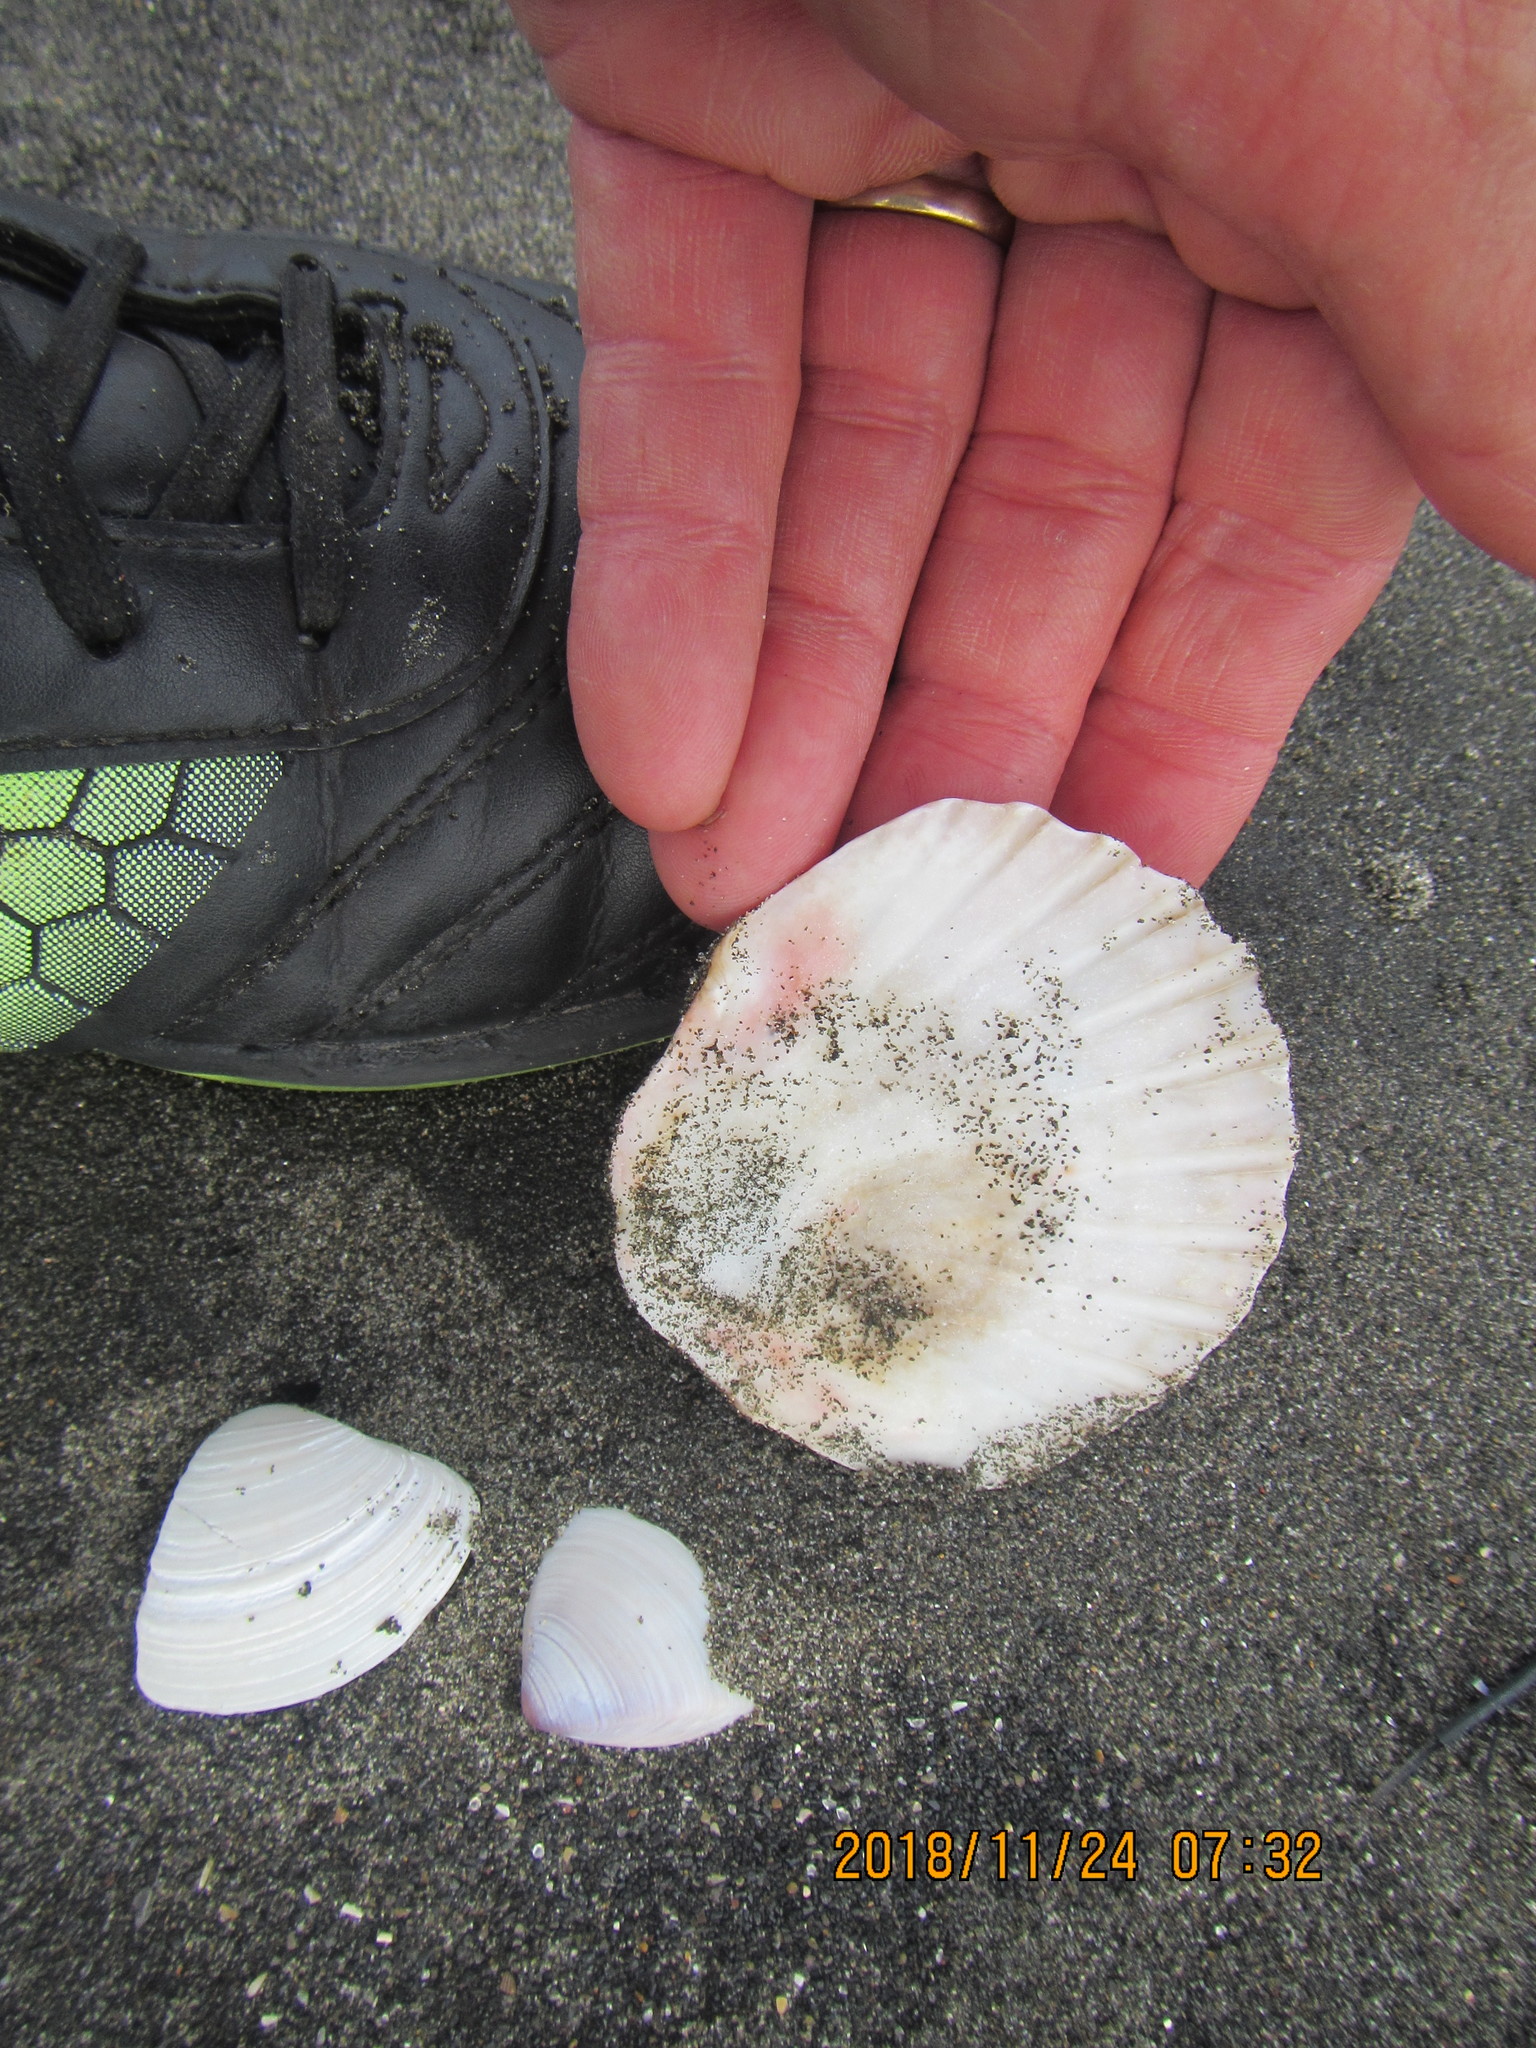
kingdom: Animalia
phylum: Mollusca
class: Bivalvia
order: Pectinida
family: Pectinidae
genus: Pecten
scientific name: Pecten novaezelandiae
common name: New zealand scallop
